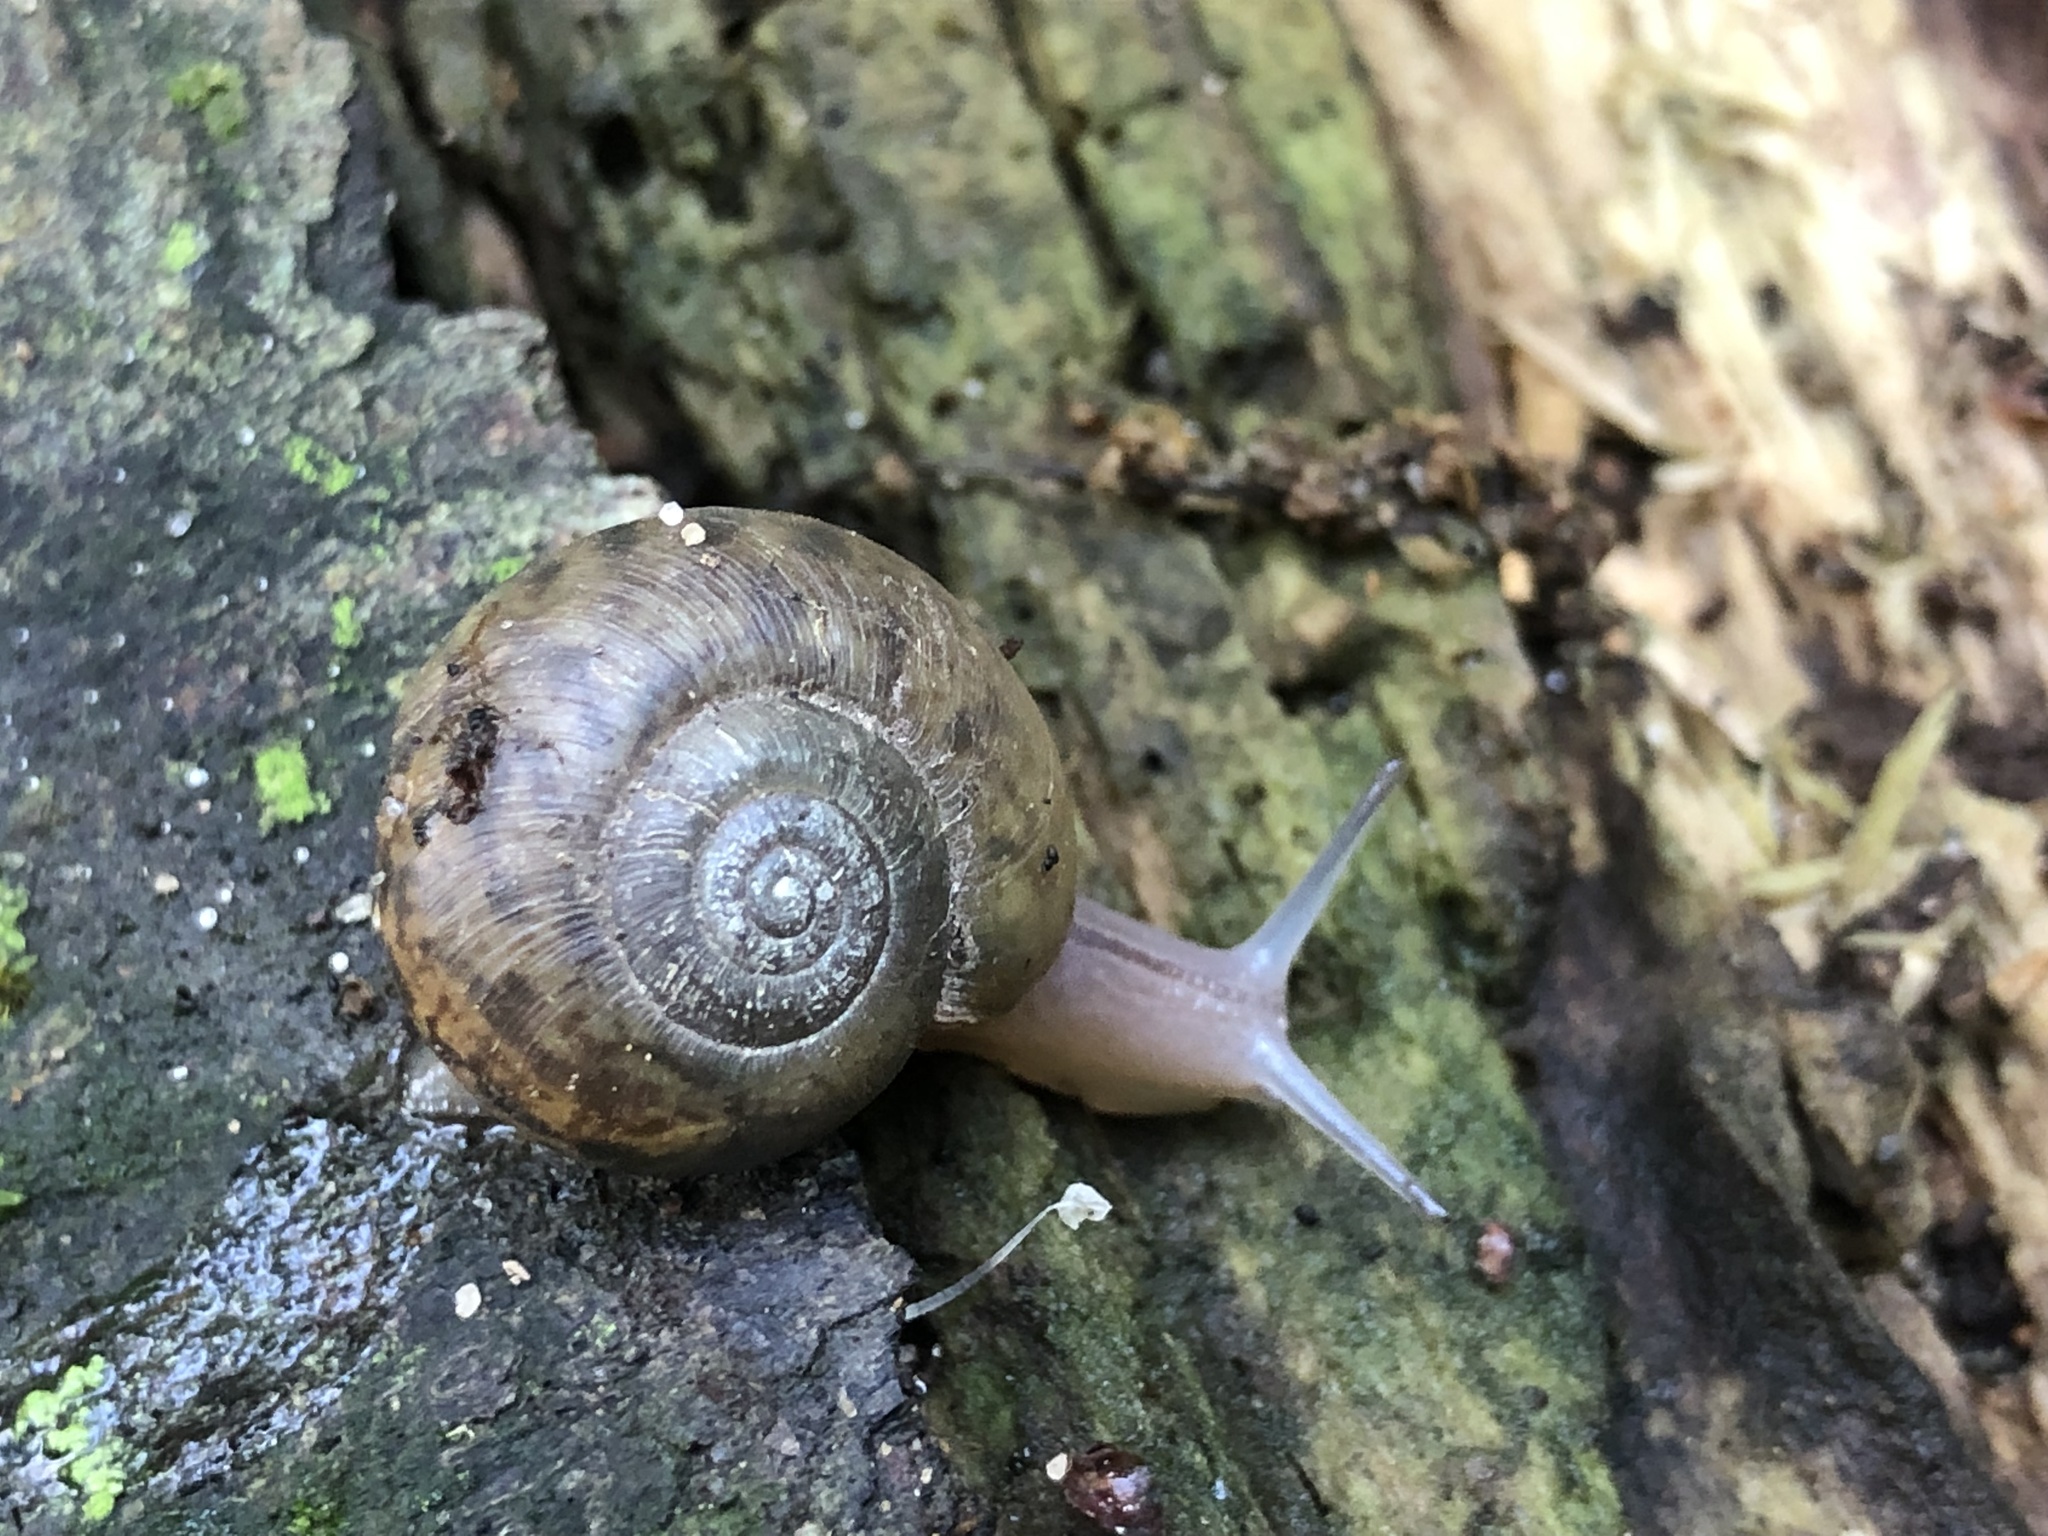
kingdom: Animalia
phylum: Mollusca
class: Gastropoda
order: Stylommatophora
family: Haplotrematidae
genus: Haplotrema
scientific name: Haplotrema minimum
